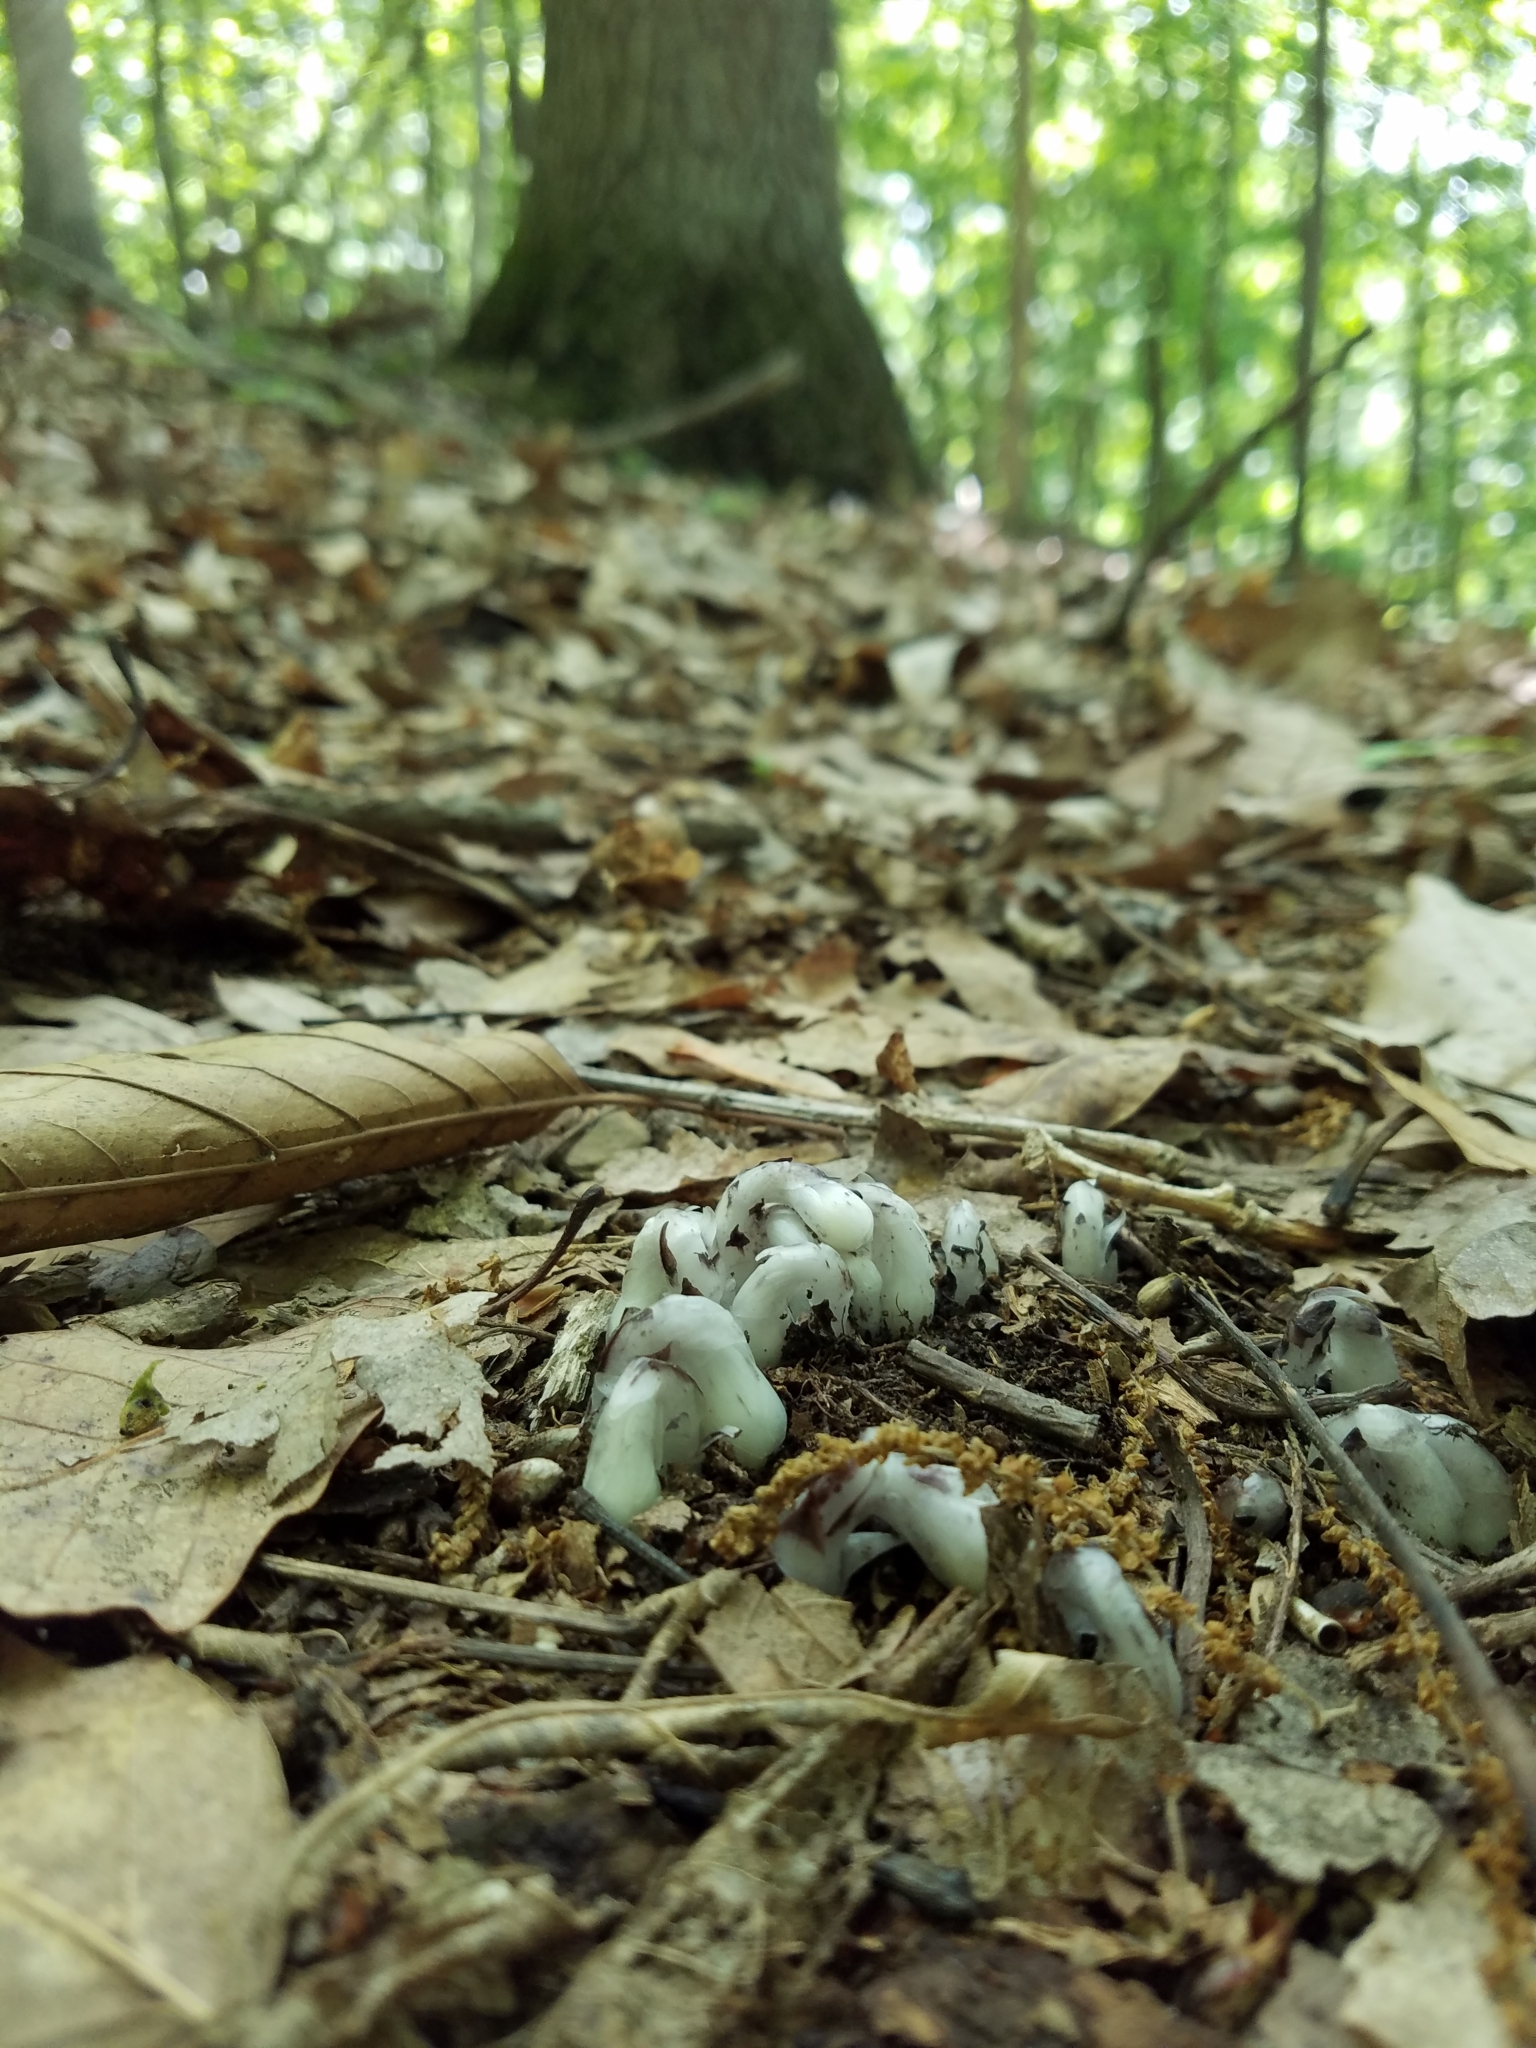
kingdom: Plantae
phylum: Tracheophyta
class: Magnoliopsida
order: Ericales
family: Ericaceae
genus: Monotropa
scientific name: Monotropa uniflora
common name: Convulsion root
